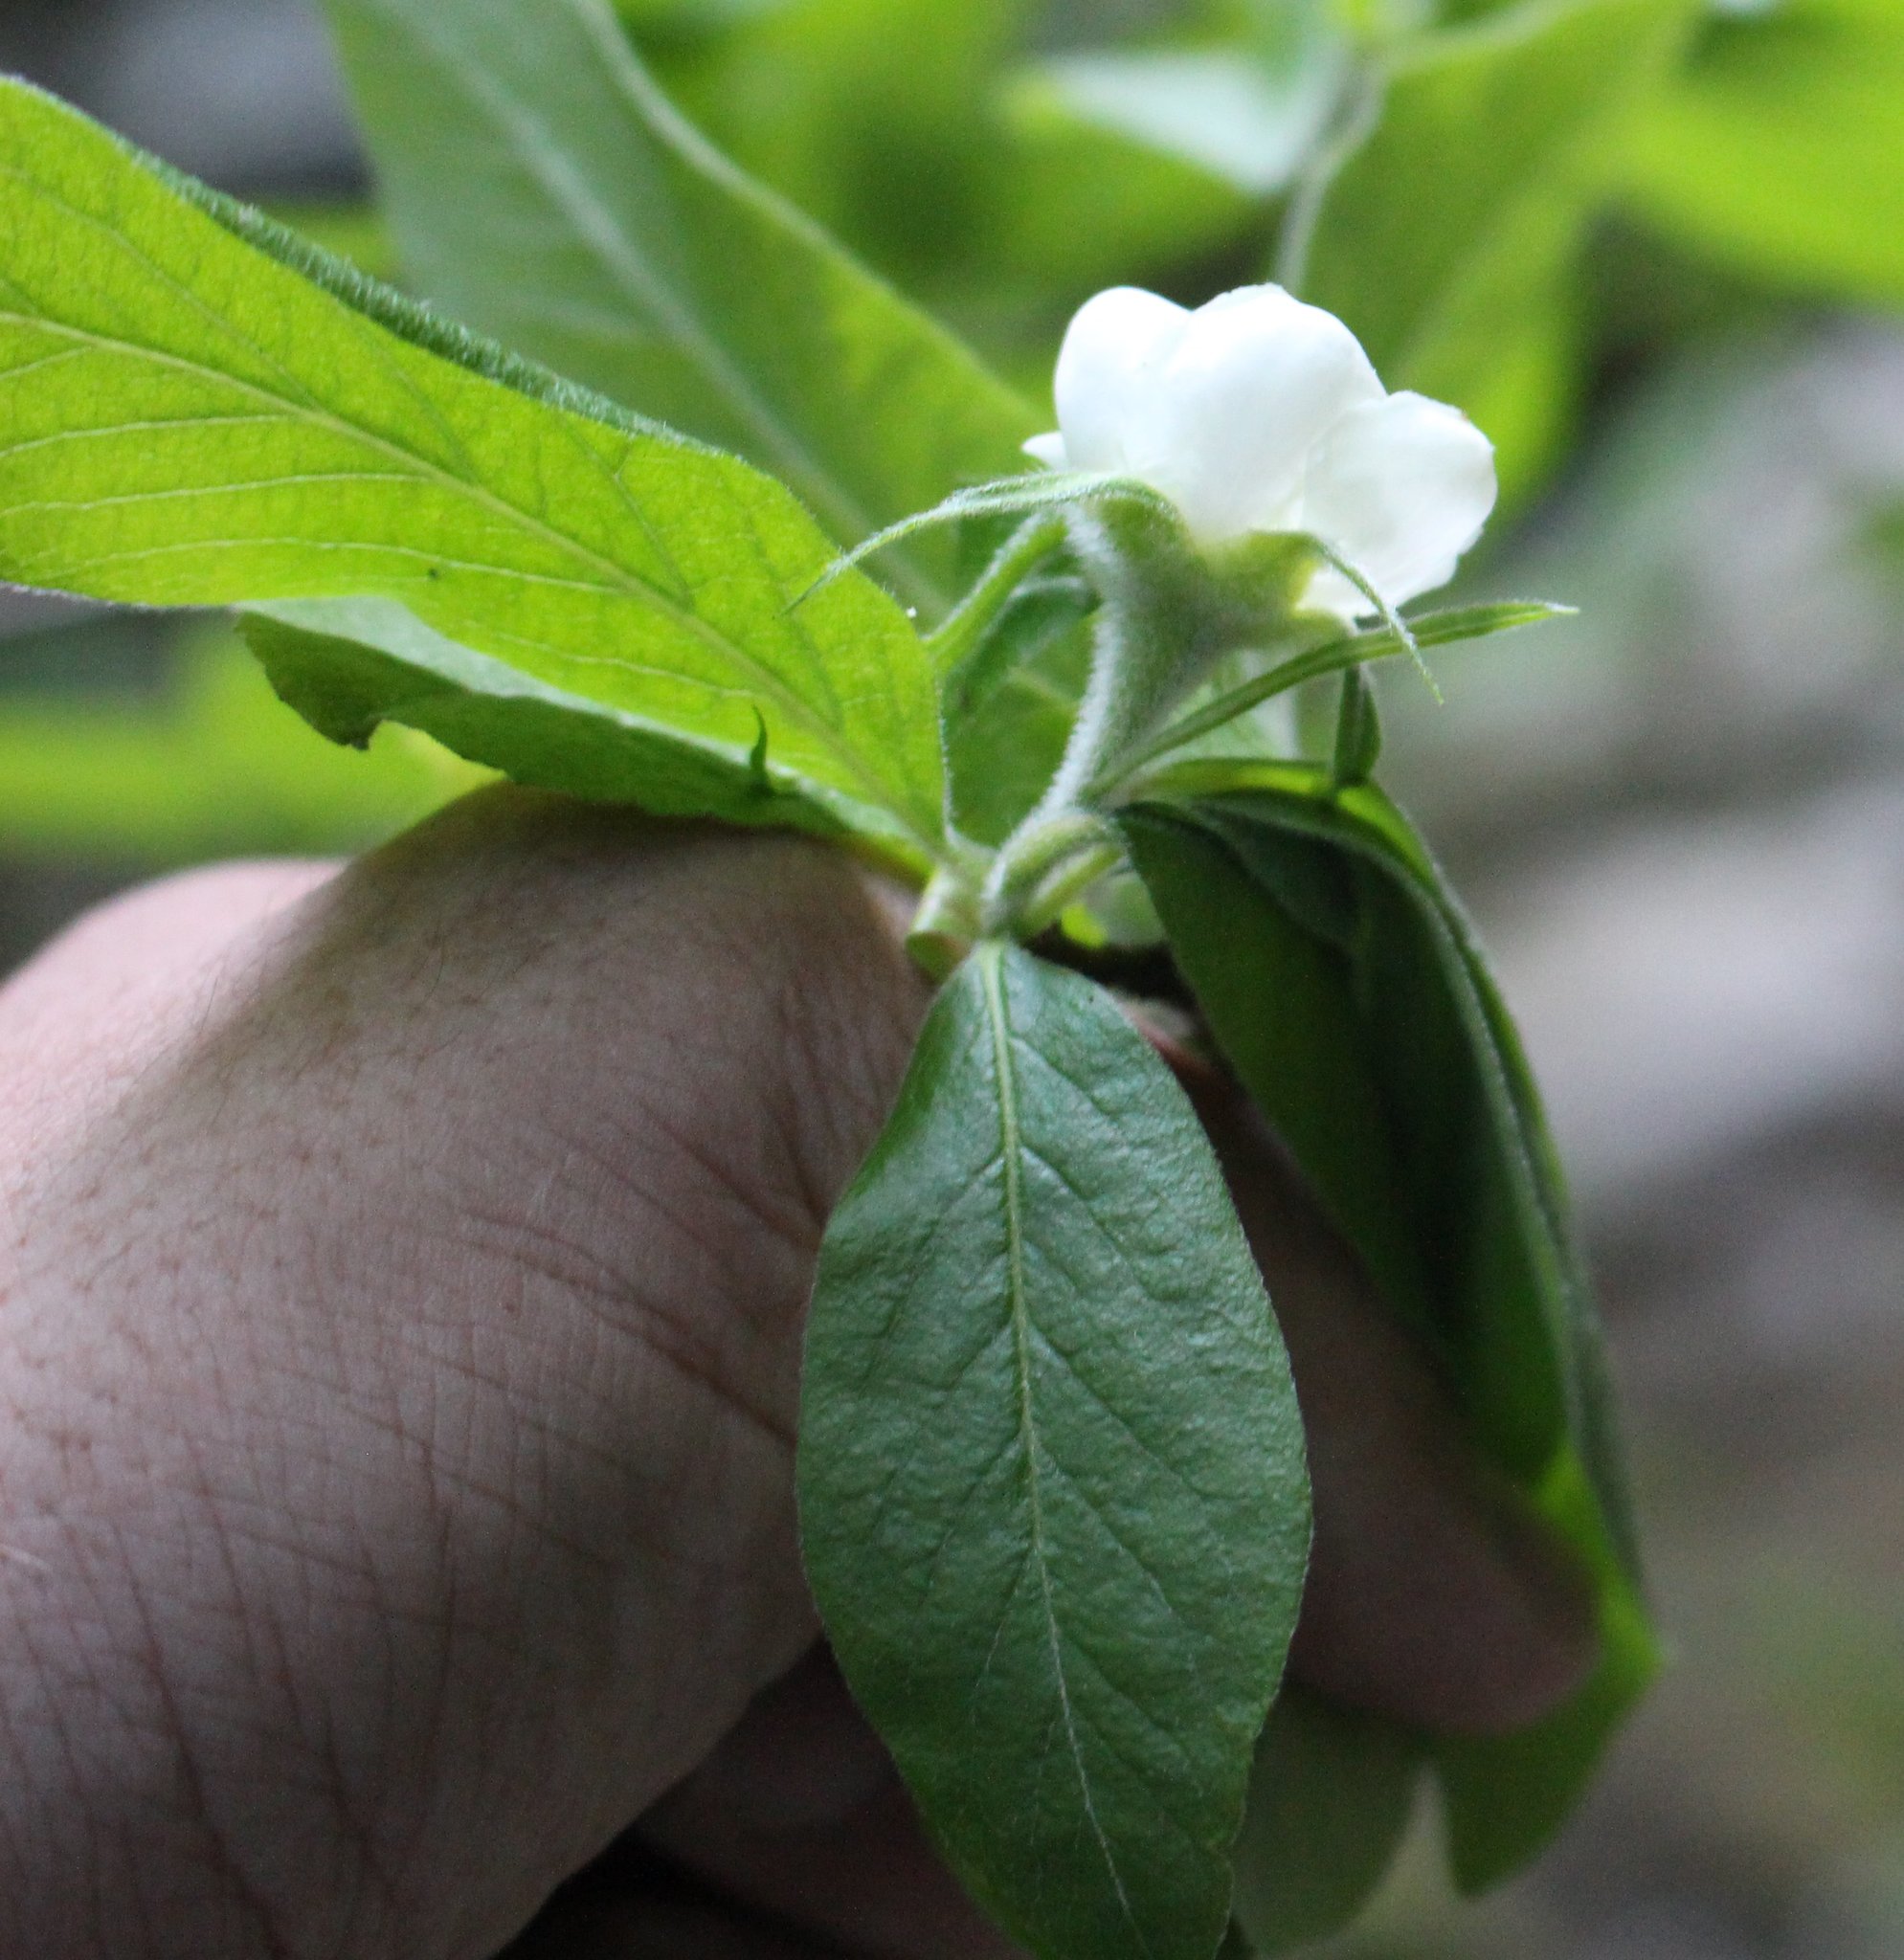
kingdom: Plantae
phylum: Tracheophyta
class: Magnoliopsida
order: Rosales
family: Rosaceae
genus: Mespilus
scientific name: Mespilus germanica
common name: Medlar
